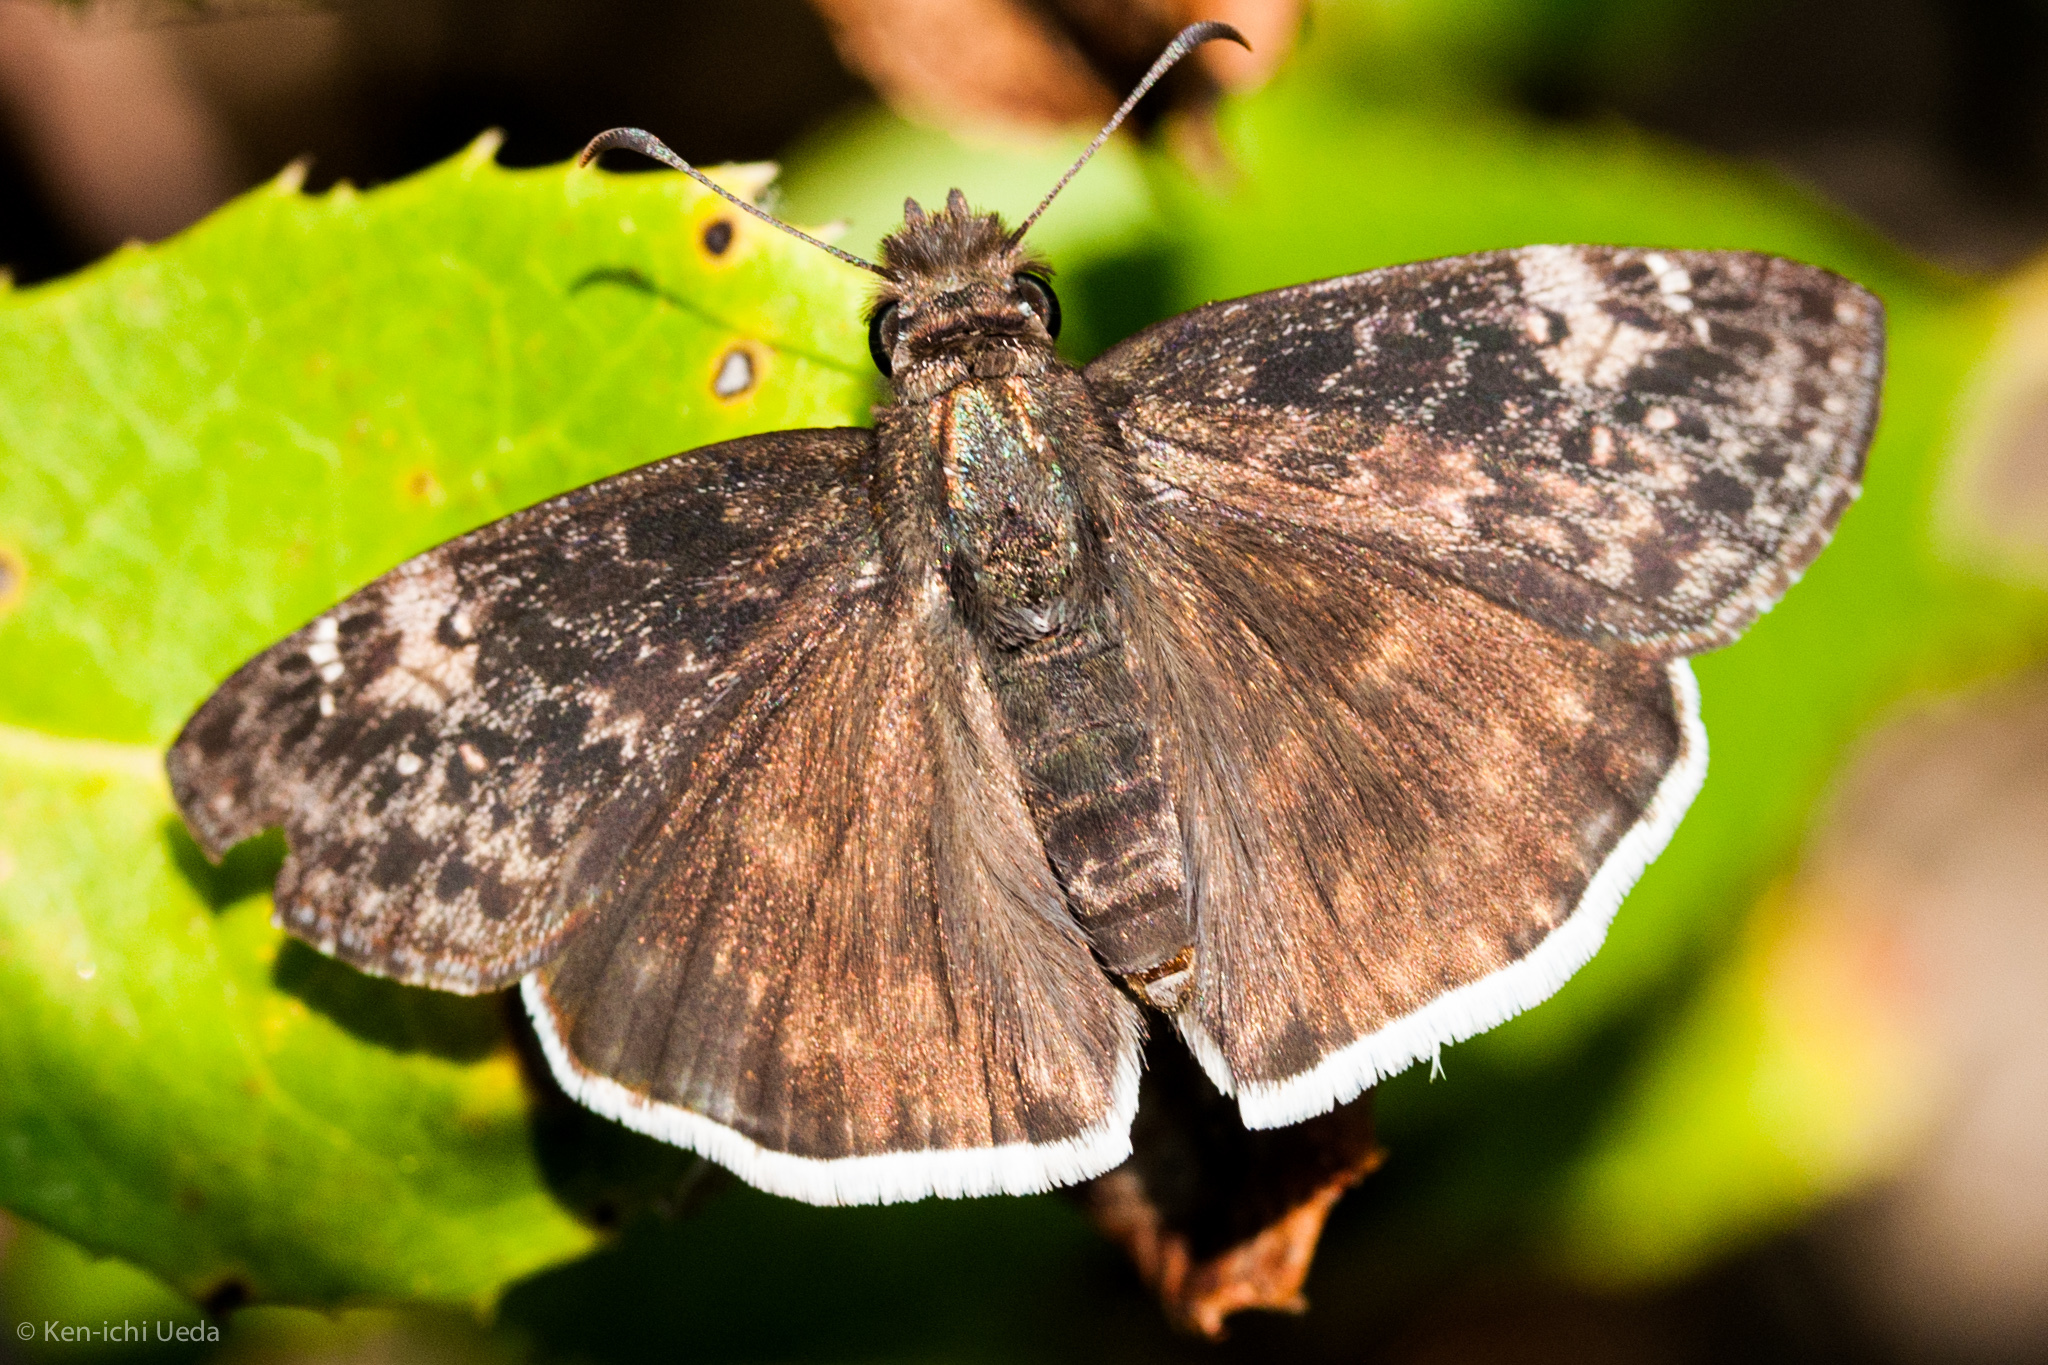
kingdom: Animalia
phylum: Arthropoda
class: Insecta
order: Lepidoptera
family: Hesperiidae
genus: Erynnis
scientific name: Erynnis tristis
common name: Mournful duskywing
